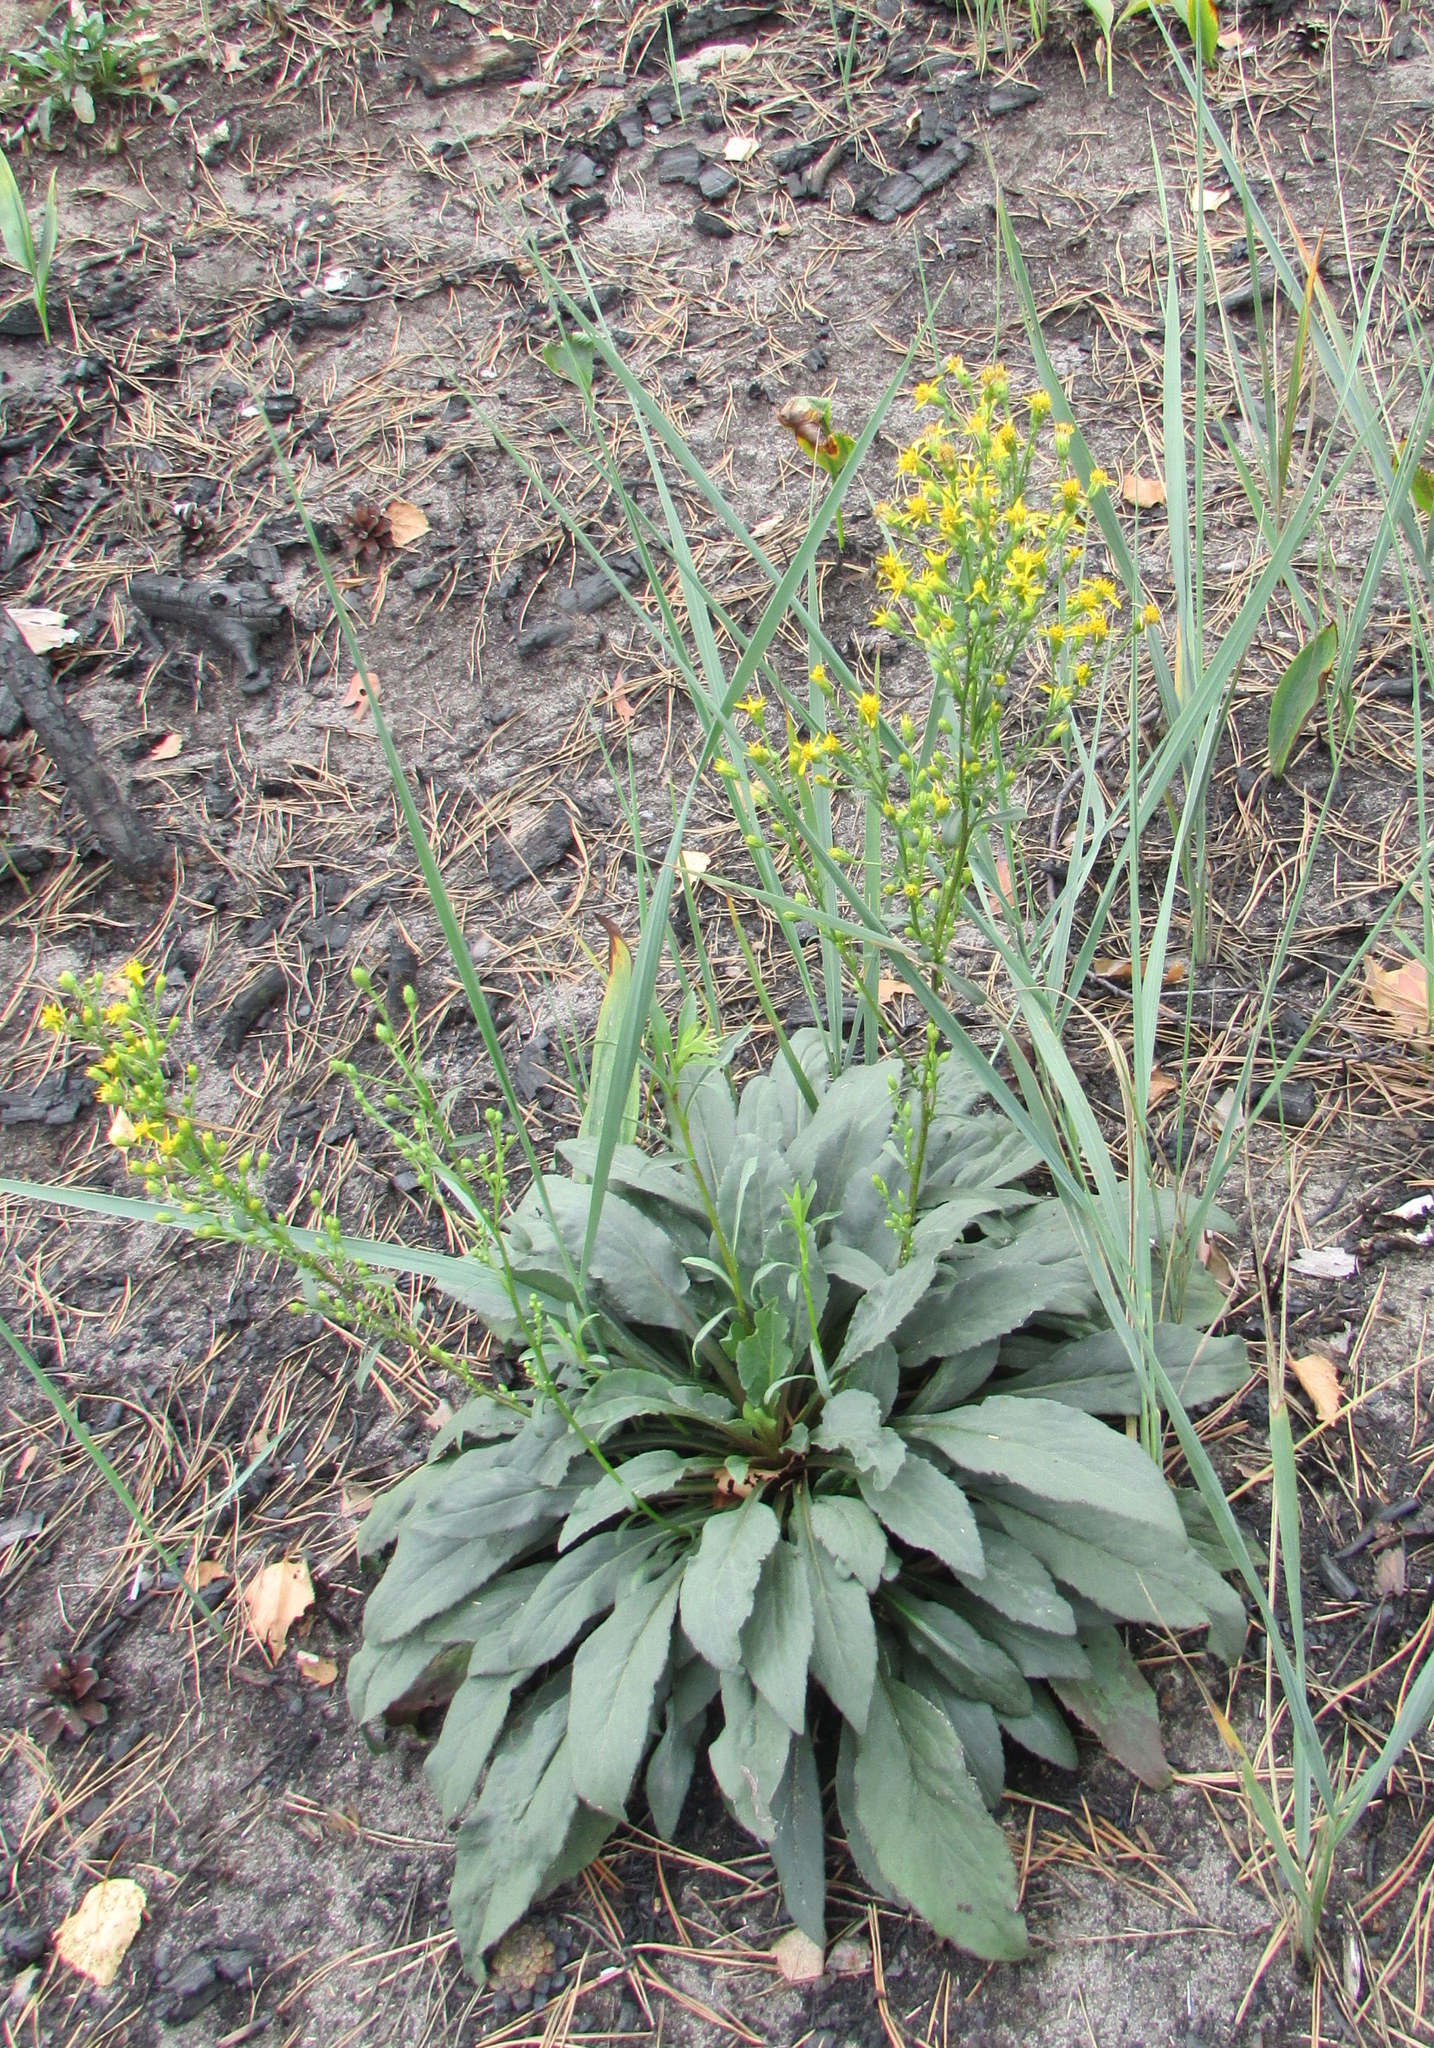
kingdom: Plantae
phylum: Tracheophyta
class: Magnoliopsida
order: Asterales
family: Asteraceae
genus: Solidago
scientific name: Solidago virgaurea
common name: Goldenrod
